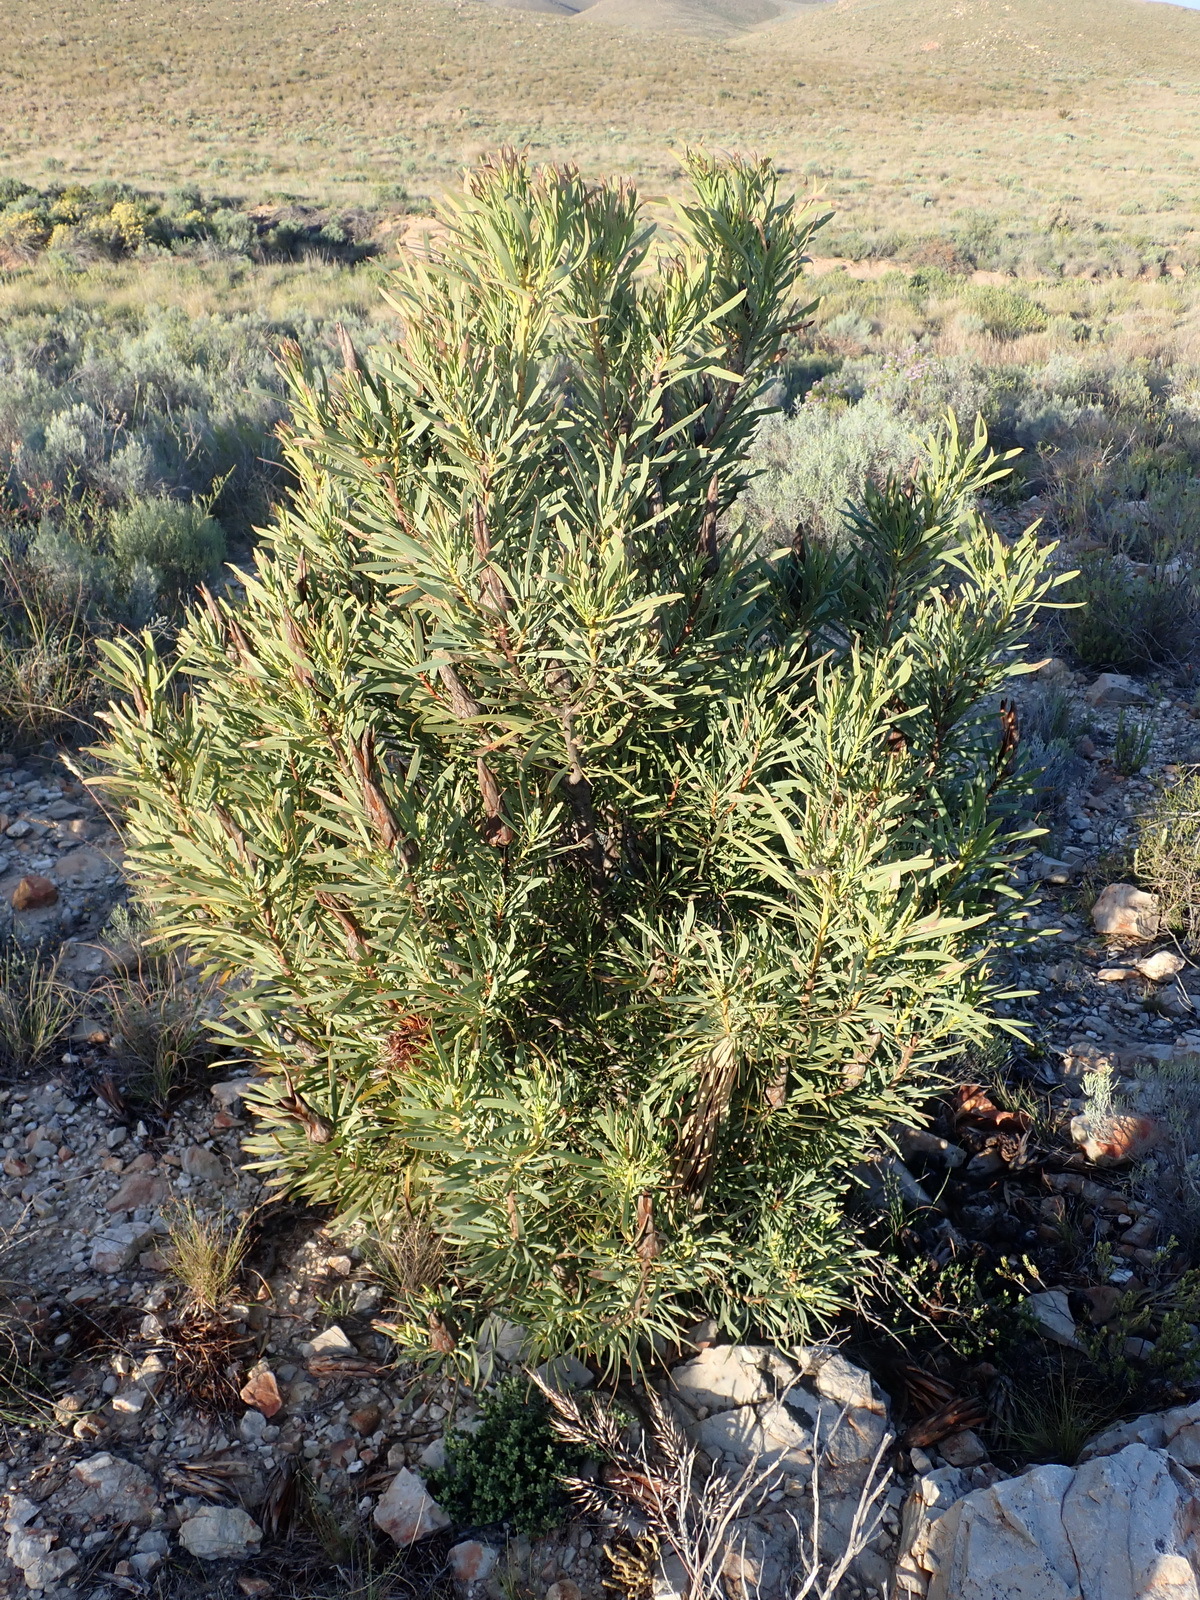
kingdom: Plantae
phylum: Tracheophyta
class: Magnoliopsida
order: Proteales
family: Proteaceae
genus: Protea
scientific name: Protea repens
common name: Sugarbush
